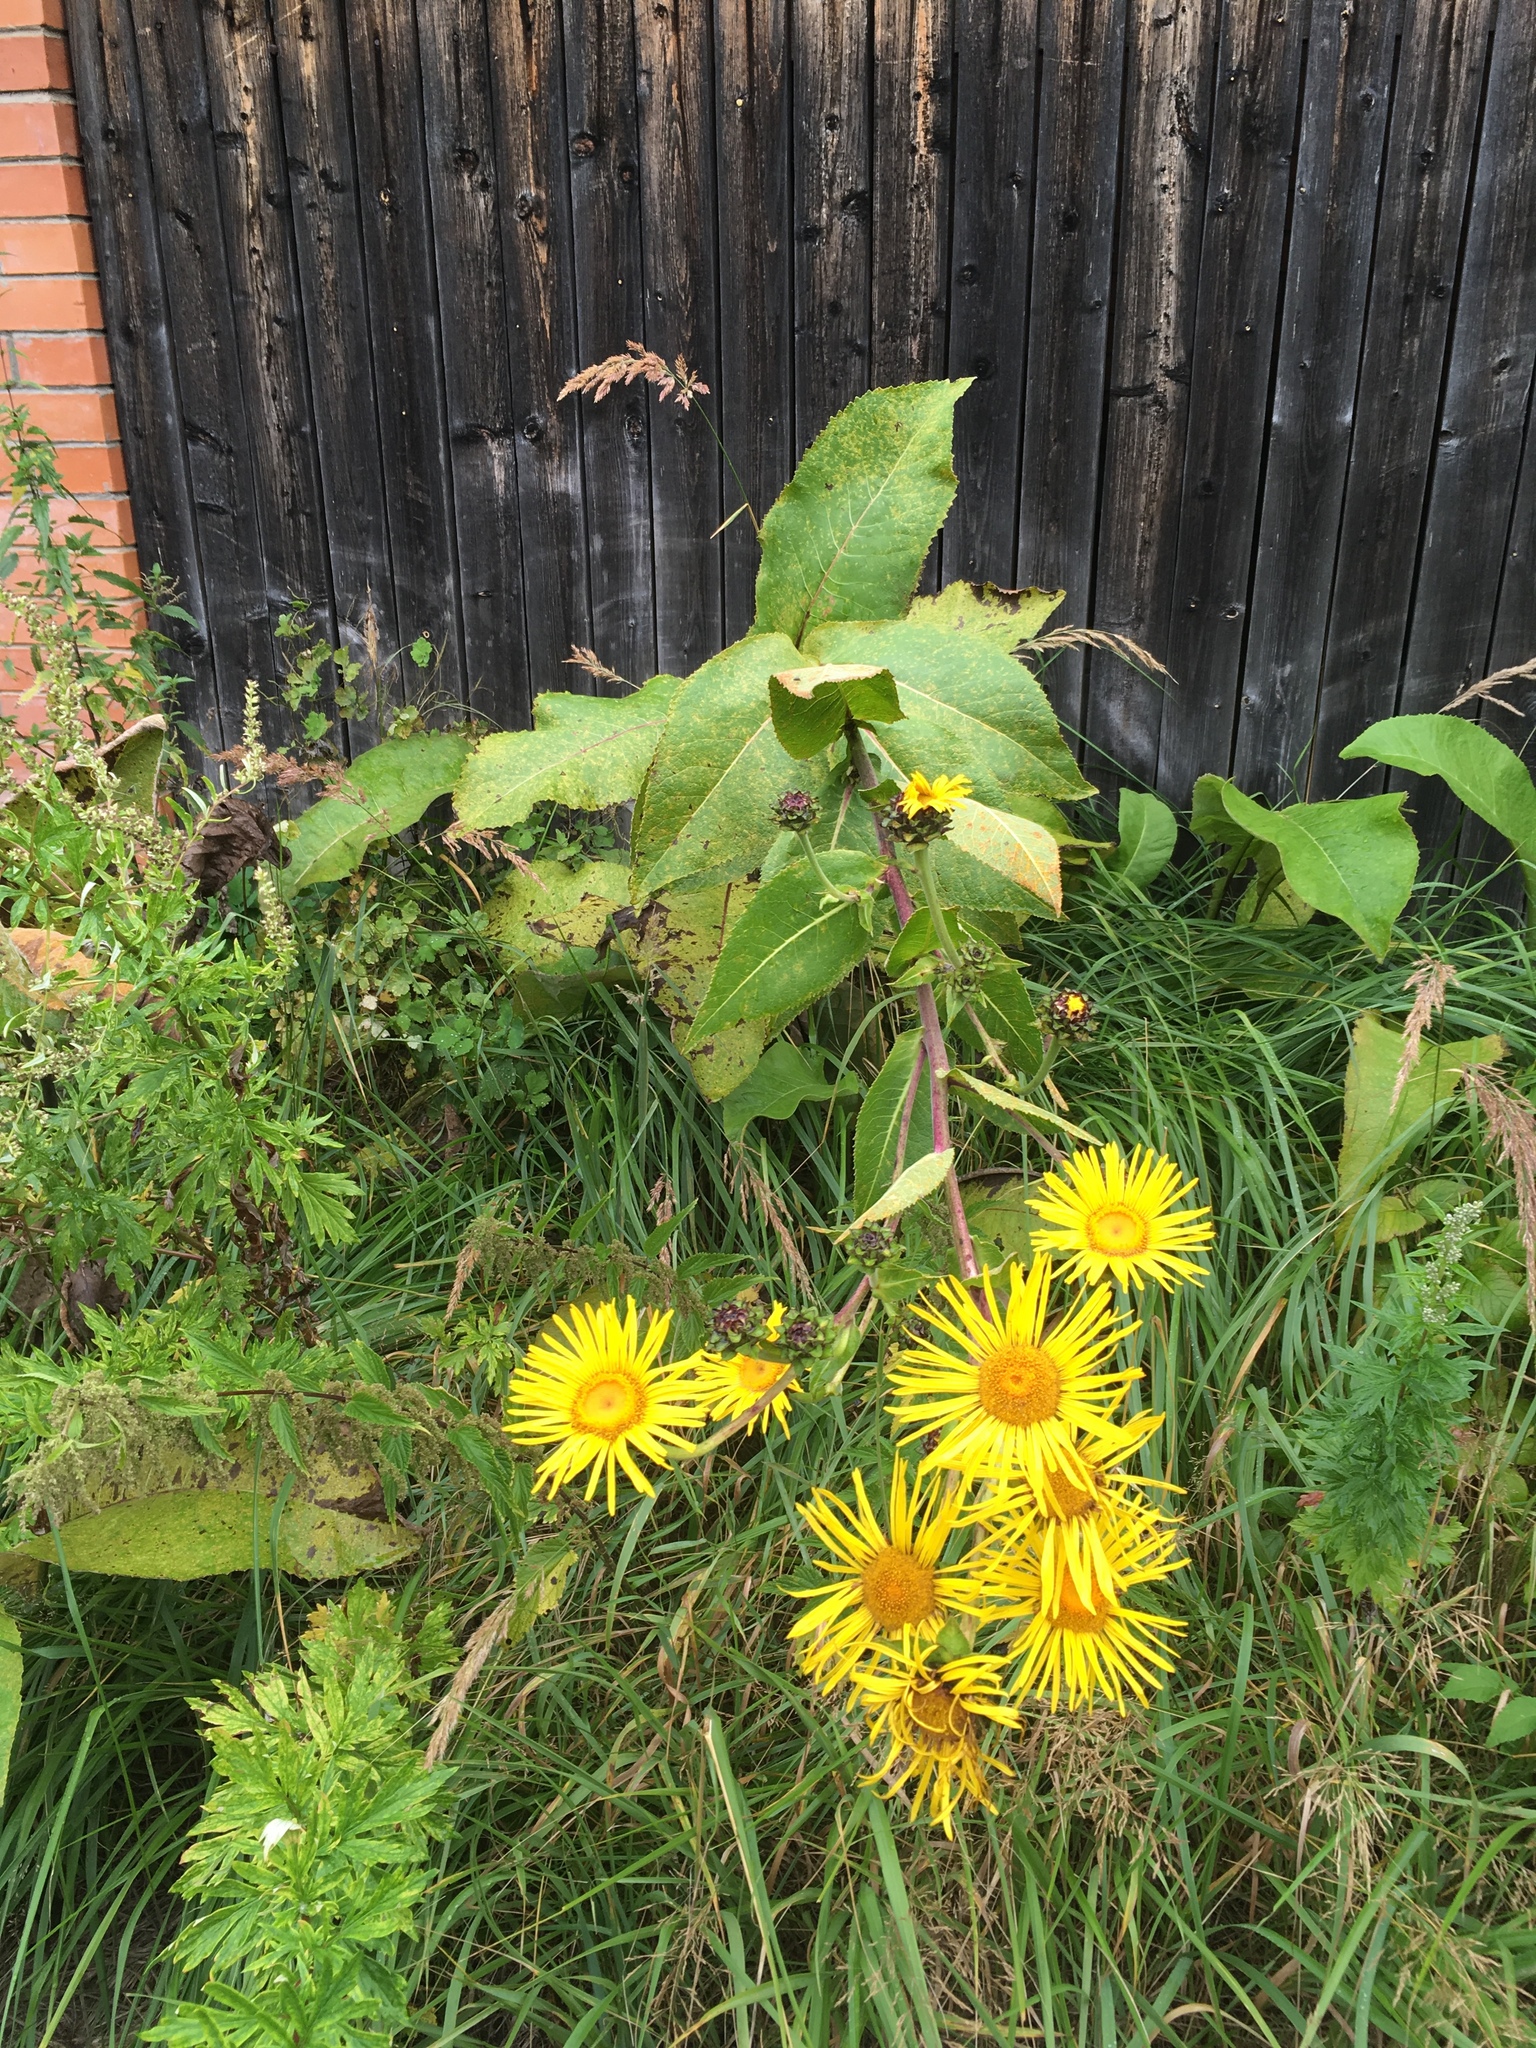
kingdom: Plantae
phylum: Tracheophyta
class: Magnoliopsida
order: Asterales
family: Asteraceae
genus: Inula
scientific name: Inula helenium
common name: Elecampane
